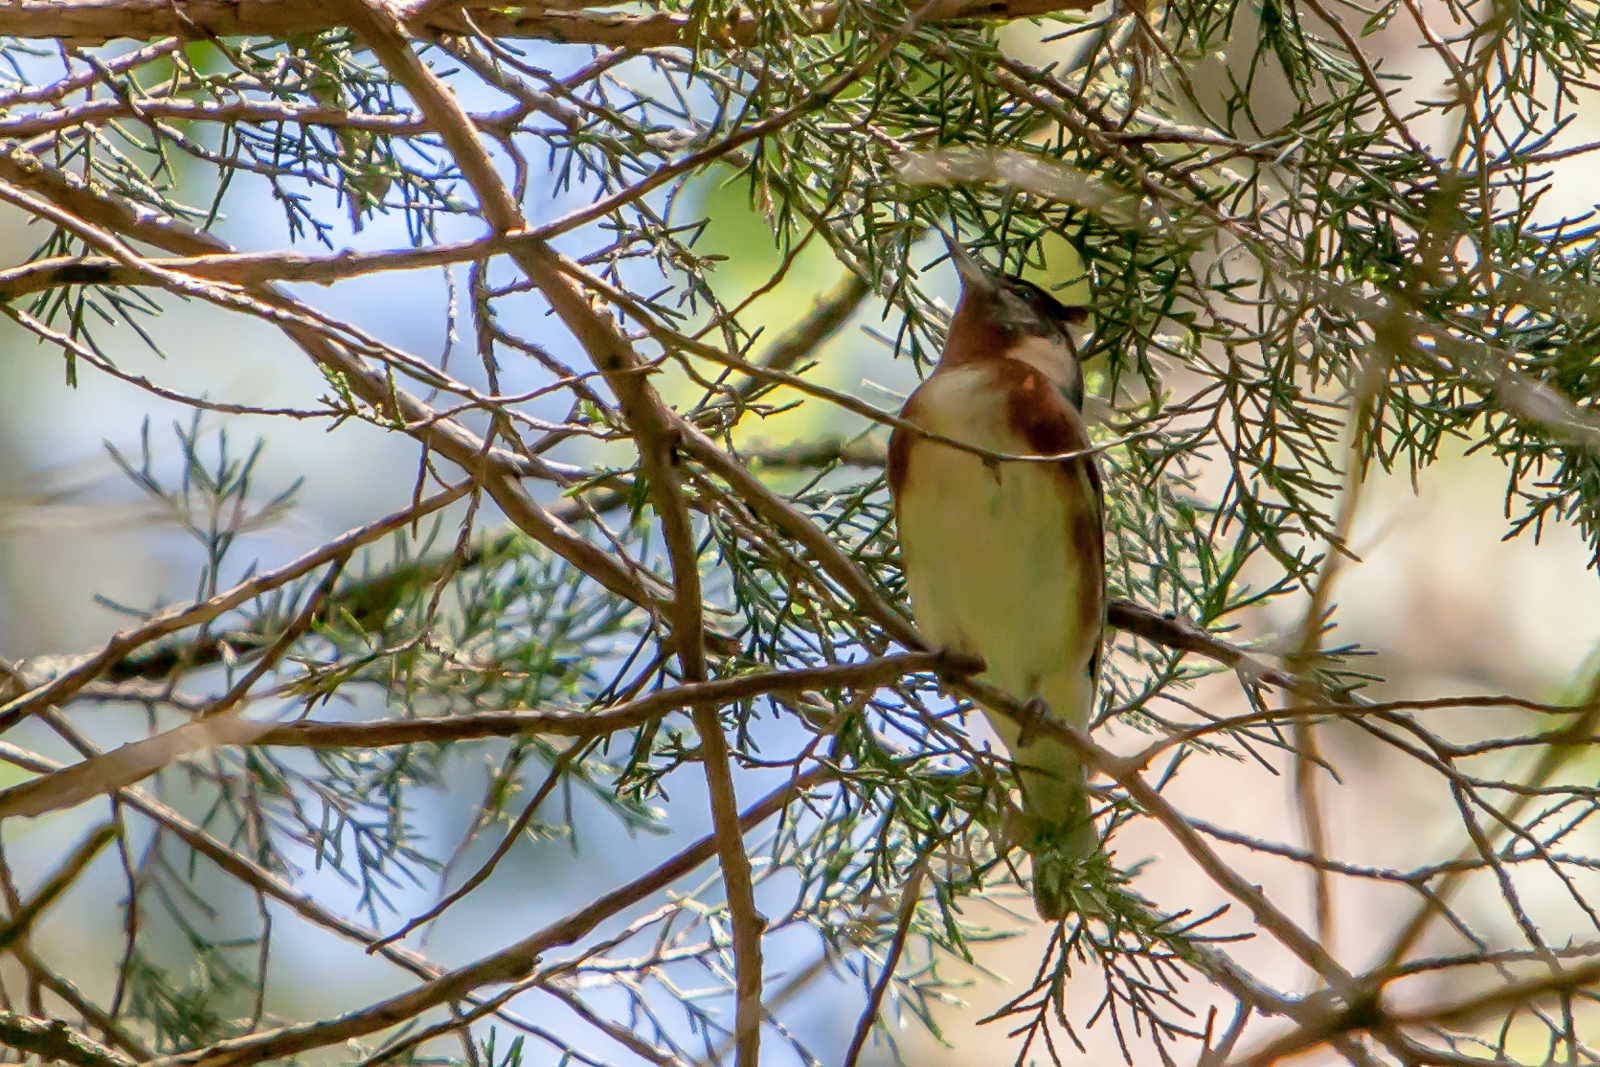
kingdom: Animalia
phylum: Chordata
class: Aves
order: Passeriformes
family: Parulidae
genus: Setophaga
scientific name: Setophaga castanea
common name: Bay-breasted warbler
